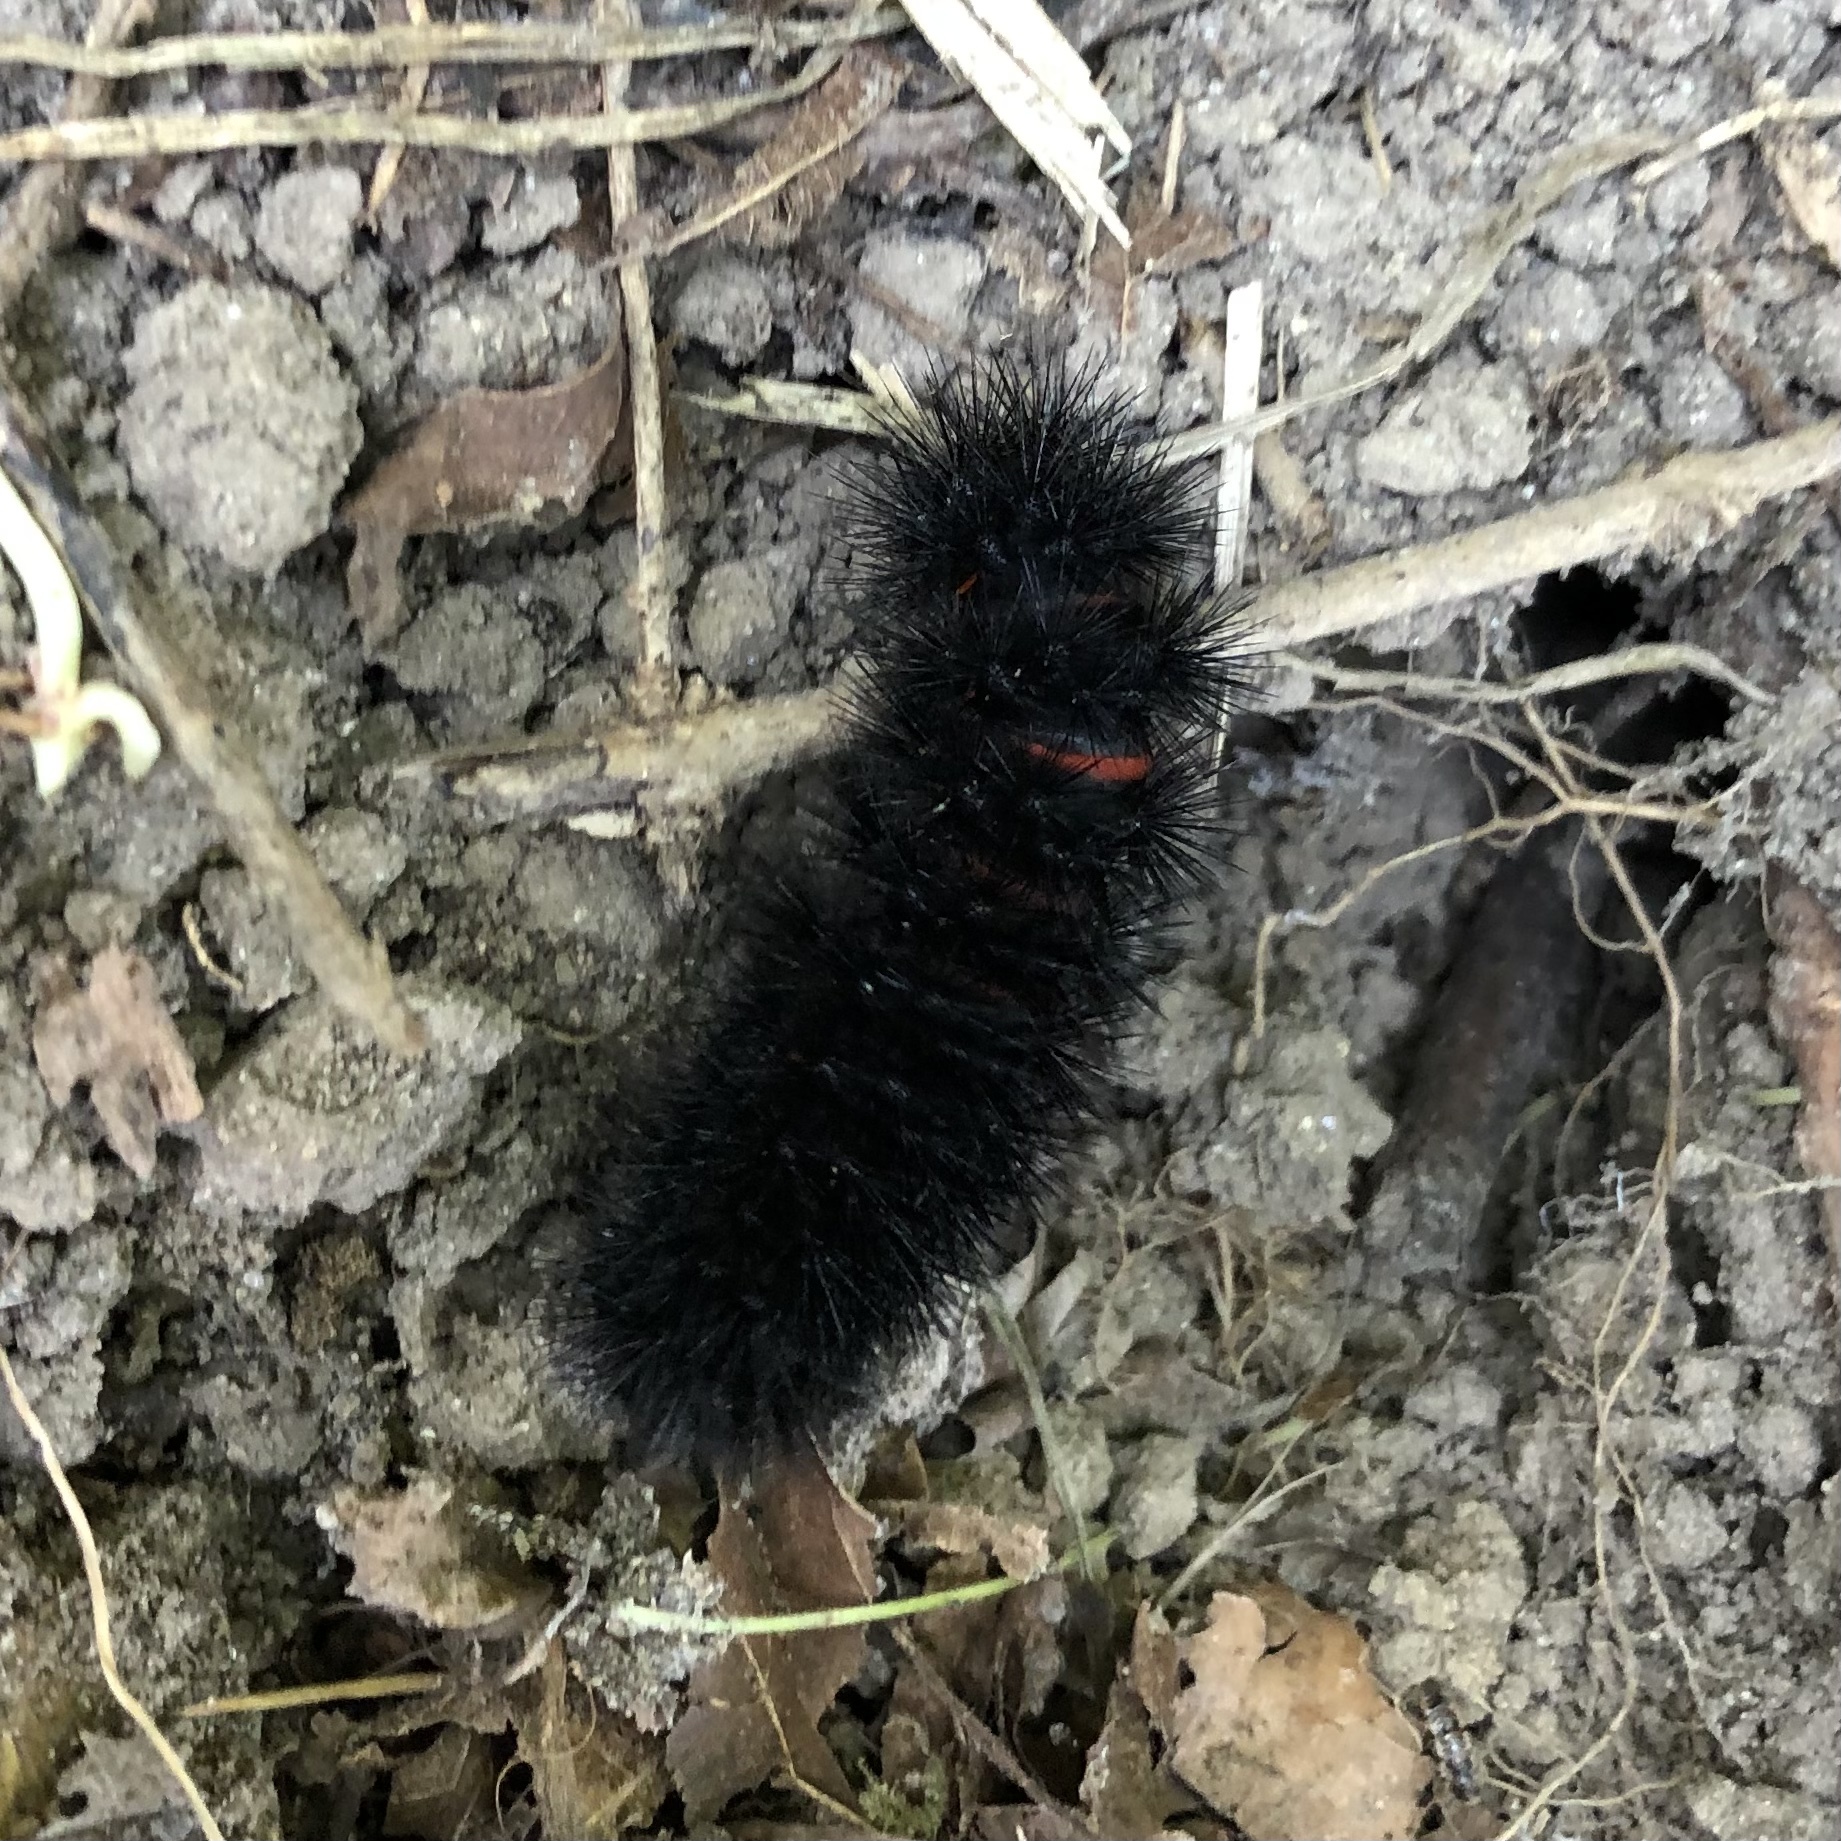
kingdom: Animalia
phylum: Arthropoda
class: Insecta
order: Lepidoptera
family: Erebidae
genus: Hypercompe
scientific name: Hypercompe scribonia
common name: Giant leopard moth
